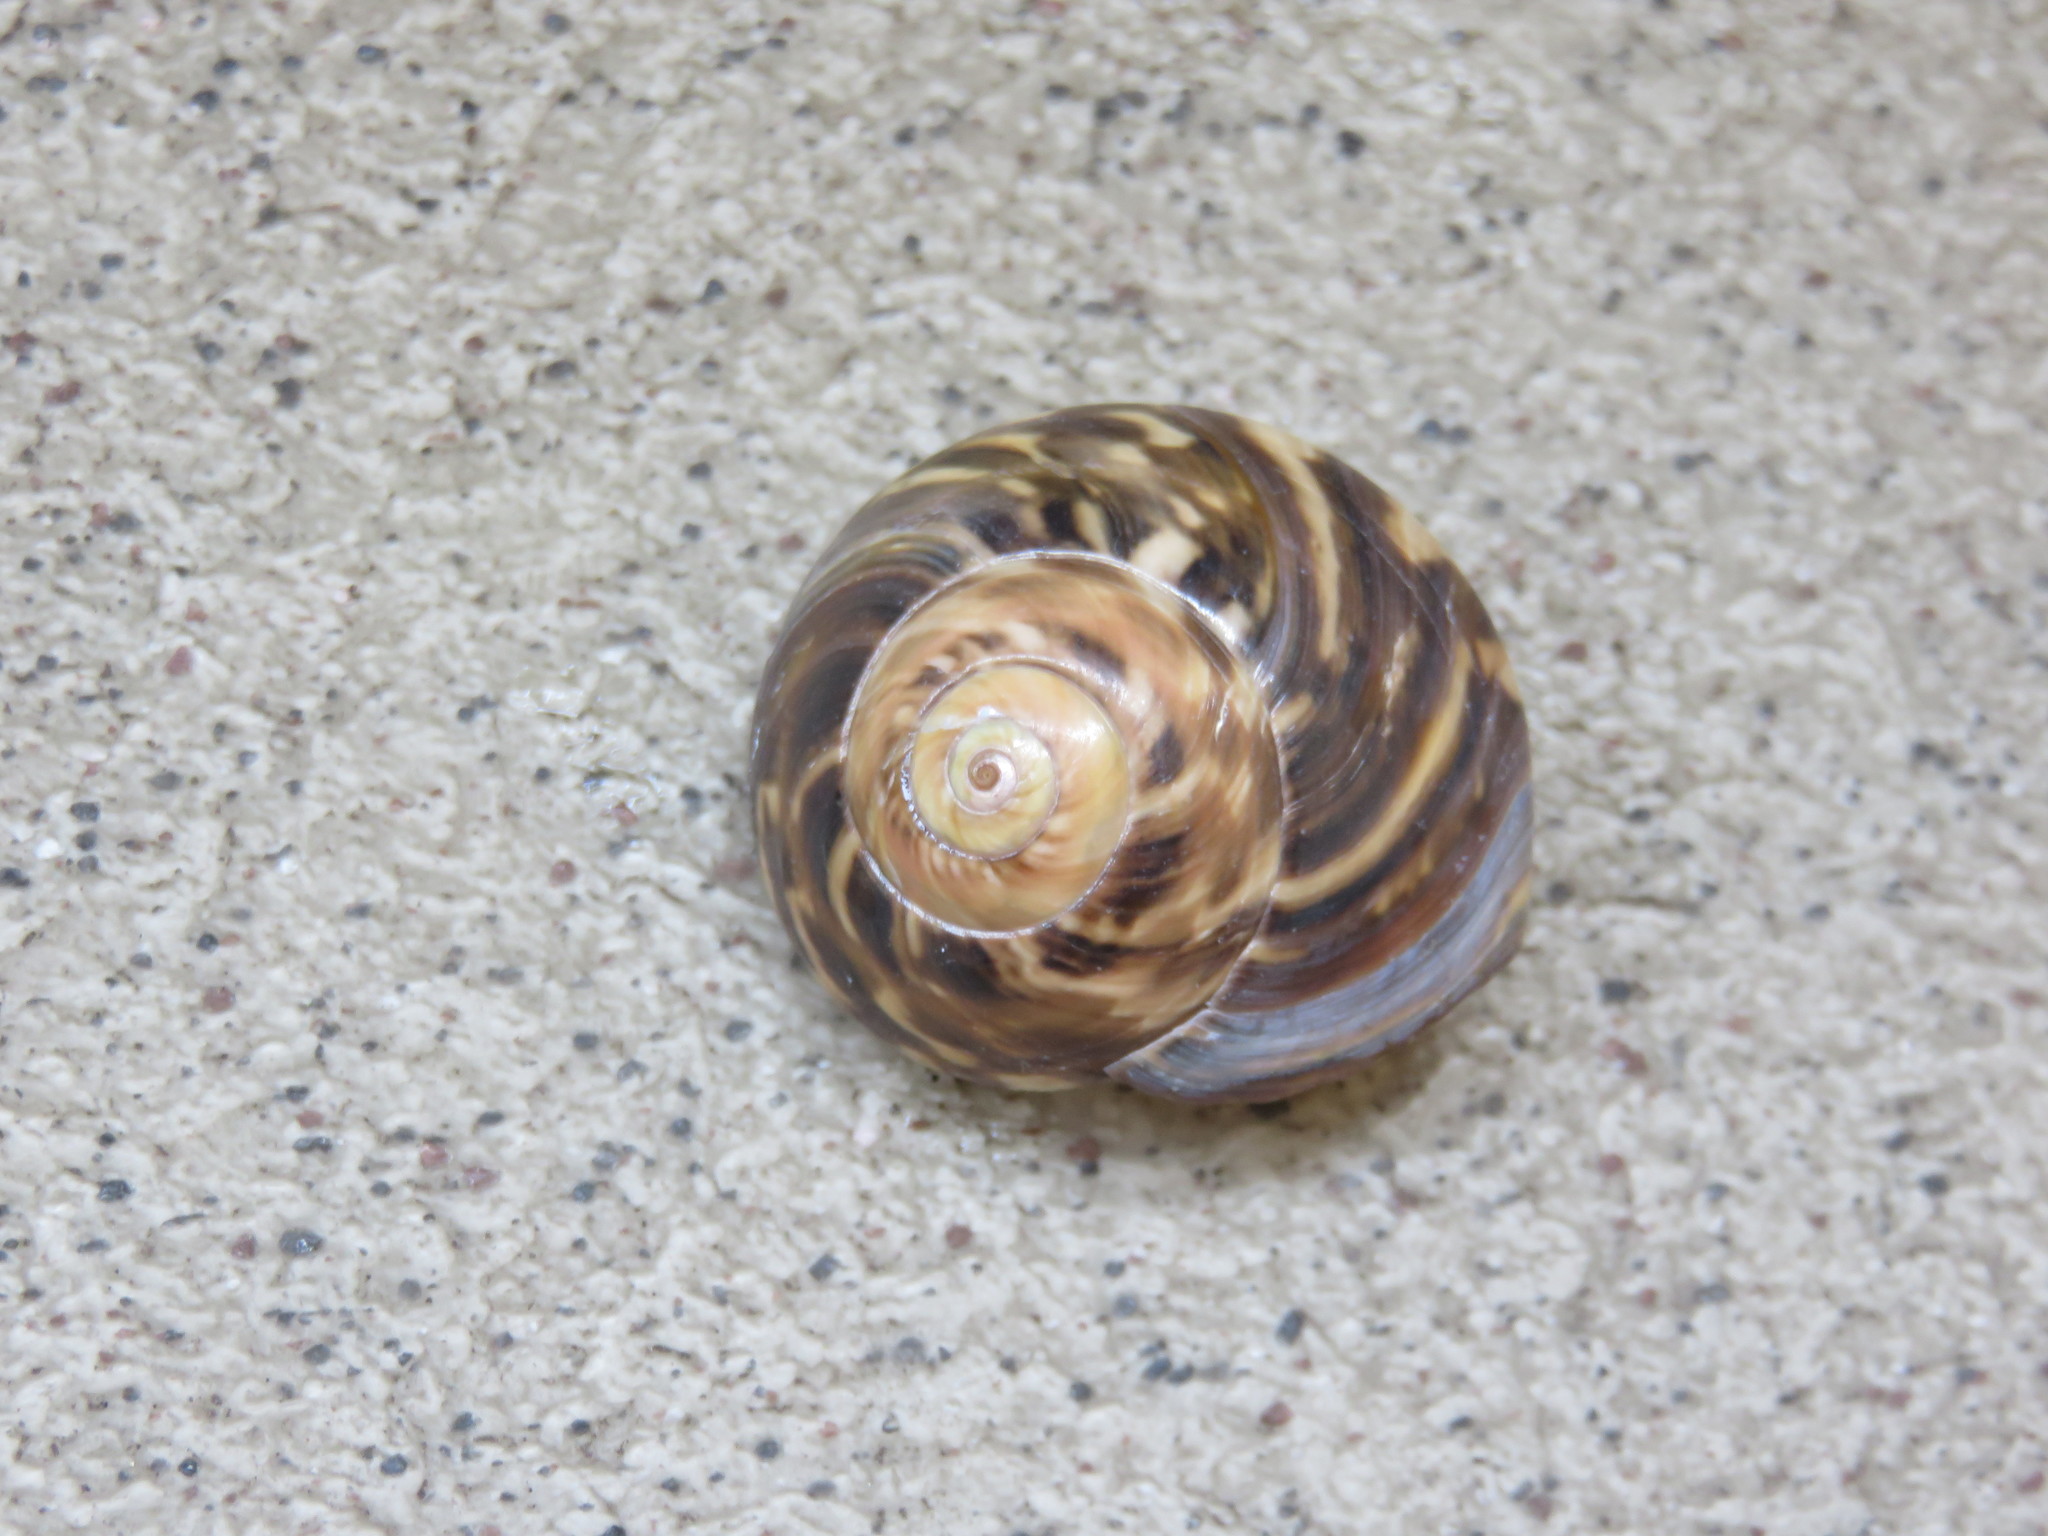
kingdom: Animalia
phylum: Mollusca
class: Gastropoda
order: Trochida
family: Trochidae
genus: Umbonium
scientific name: Umbonium giganteum
